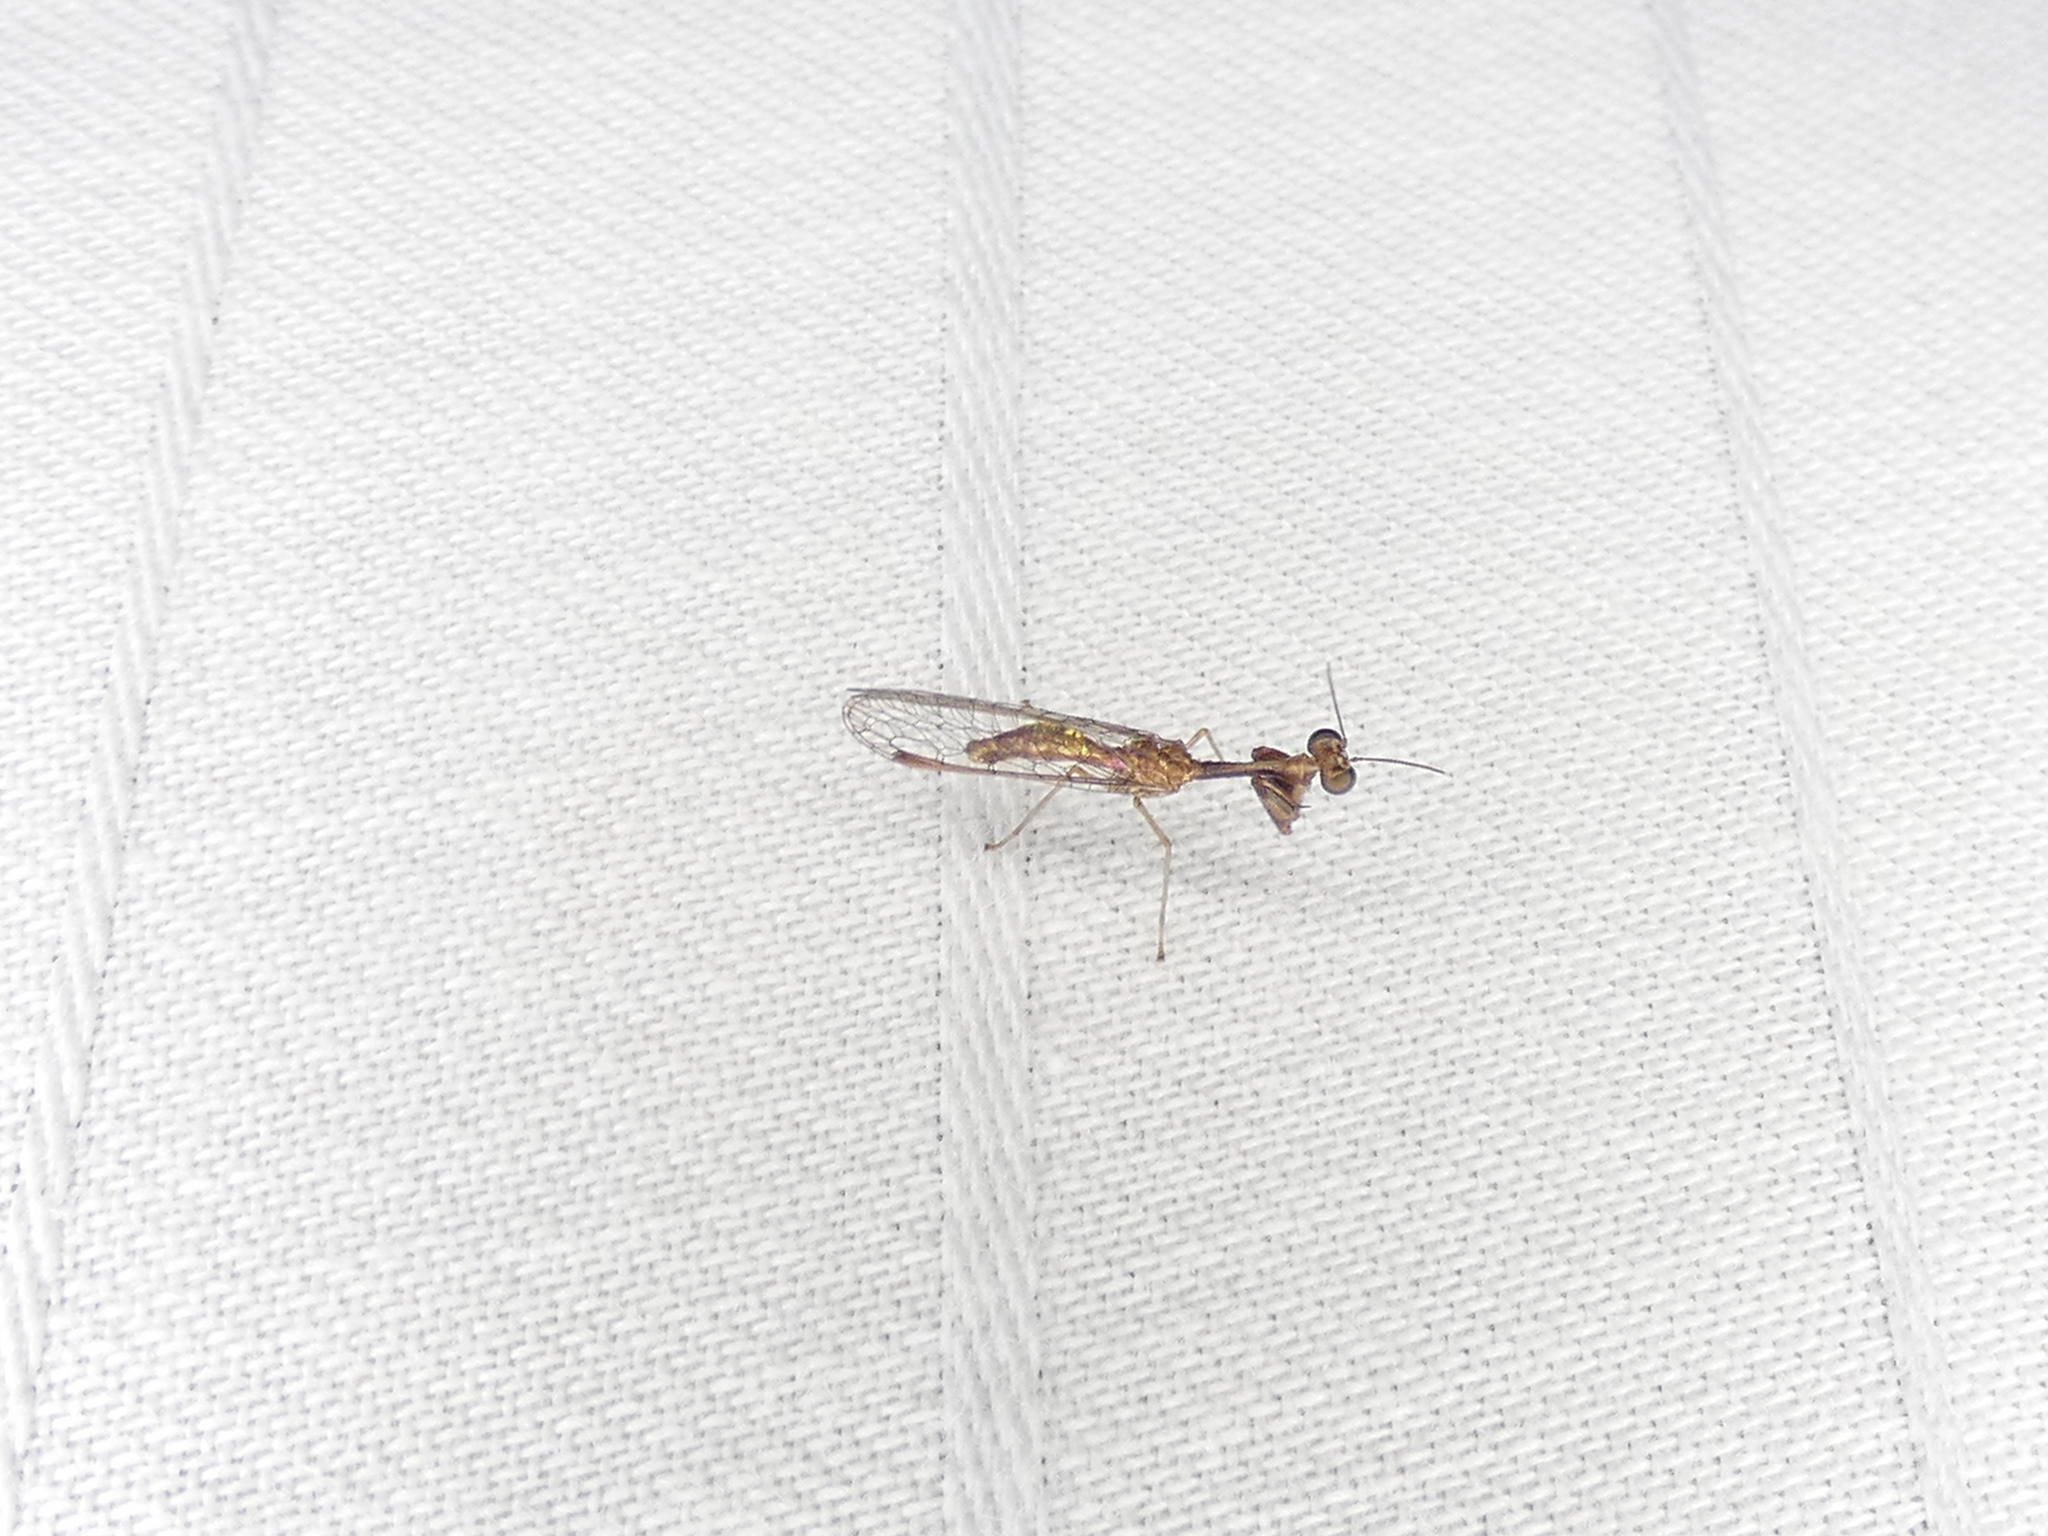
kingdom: Animalia
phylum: Arthropoda
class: Insecta
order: Neuroptera
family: Mantispidae
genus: Leptomantispa
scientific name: Leptomantispa pulchella
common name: Stevens's mantidfly
